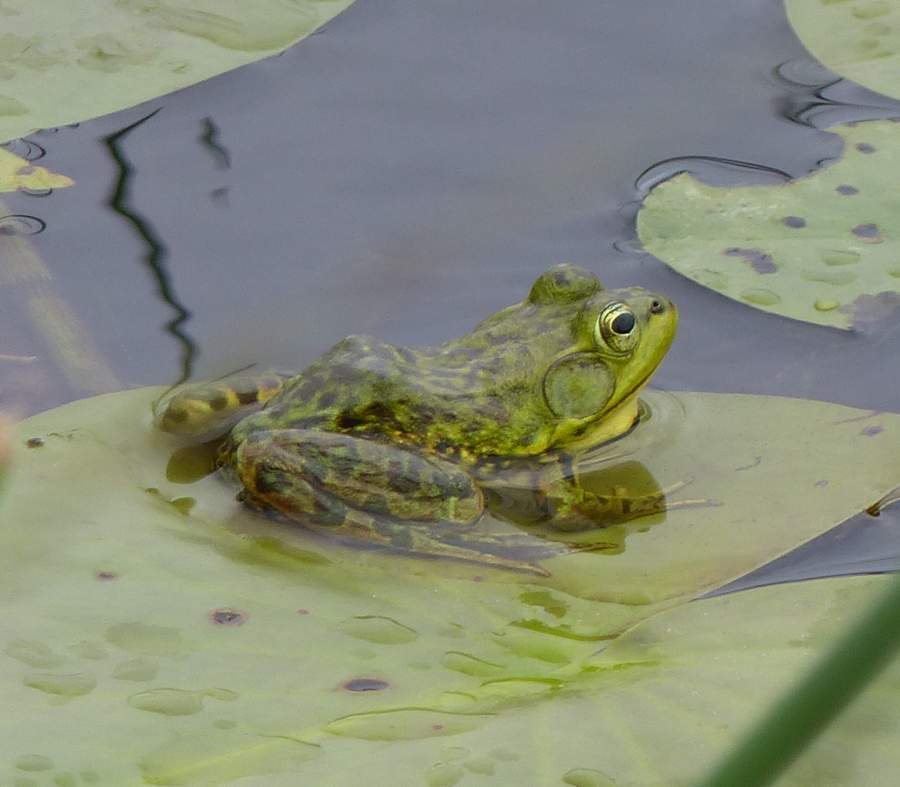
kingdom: Animalia
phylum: Chordata
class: Amphibia
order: Anura
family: Ranidae
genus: Lithobates
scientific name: Lithobates septentrionalis
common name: Mink frog
